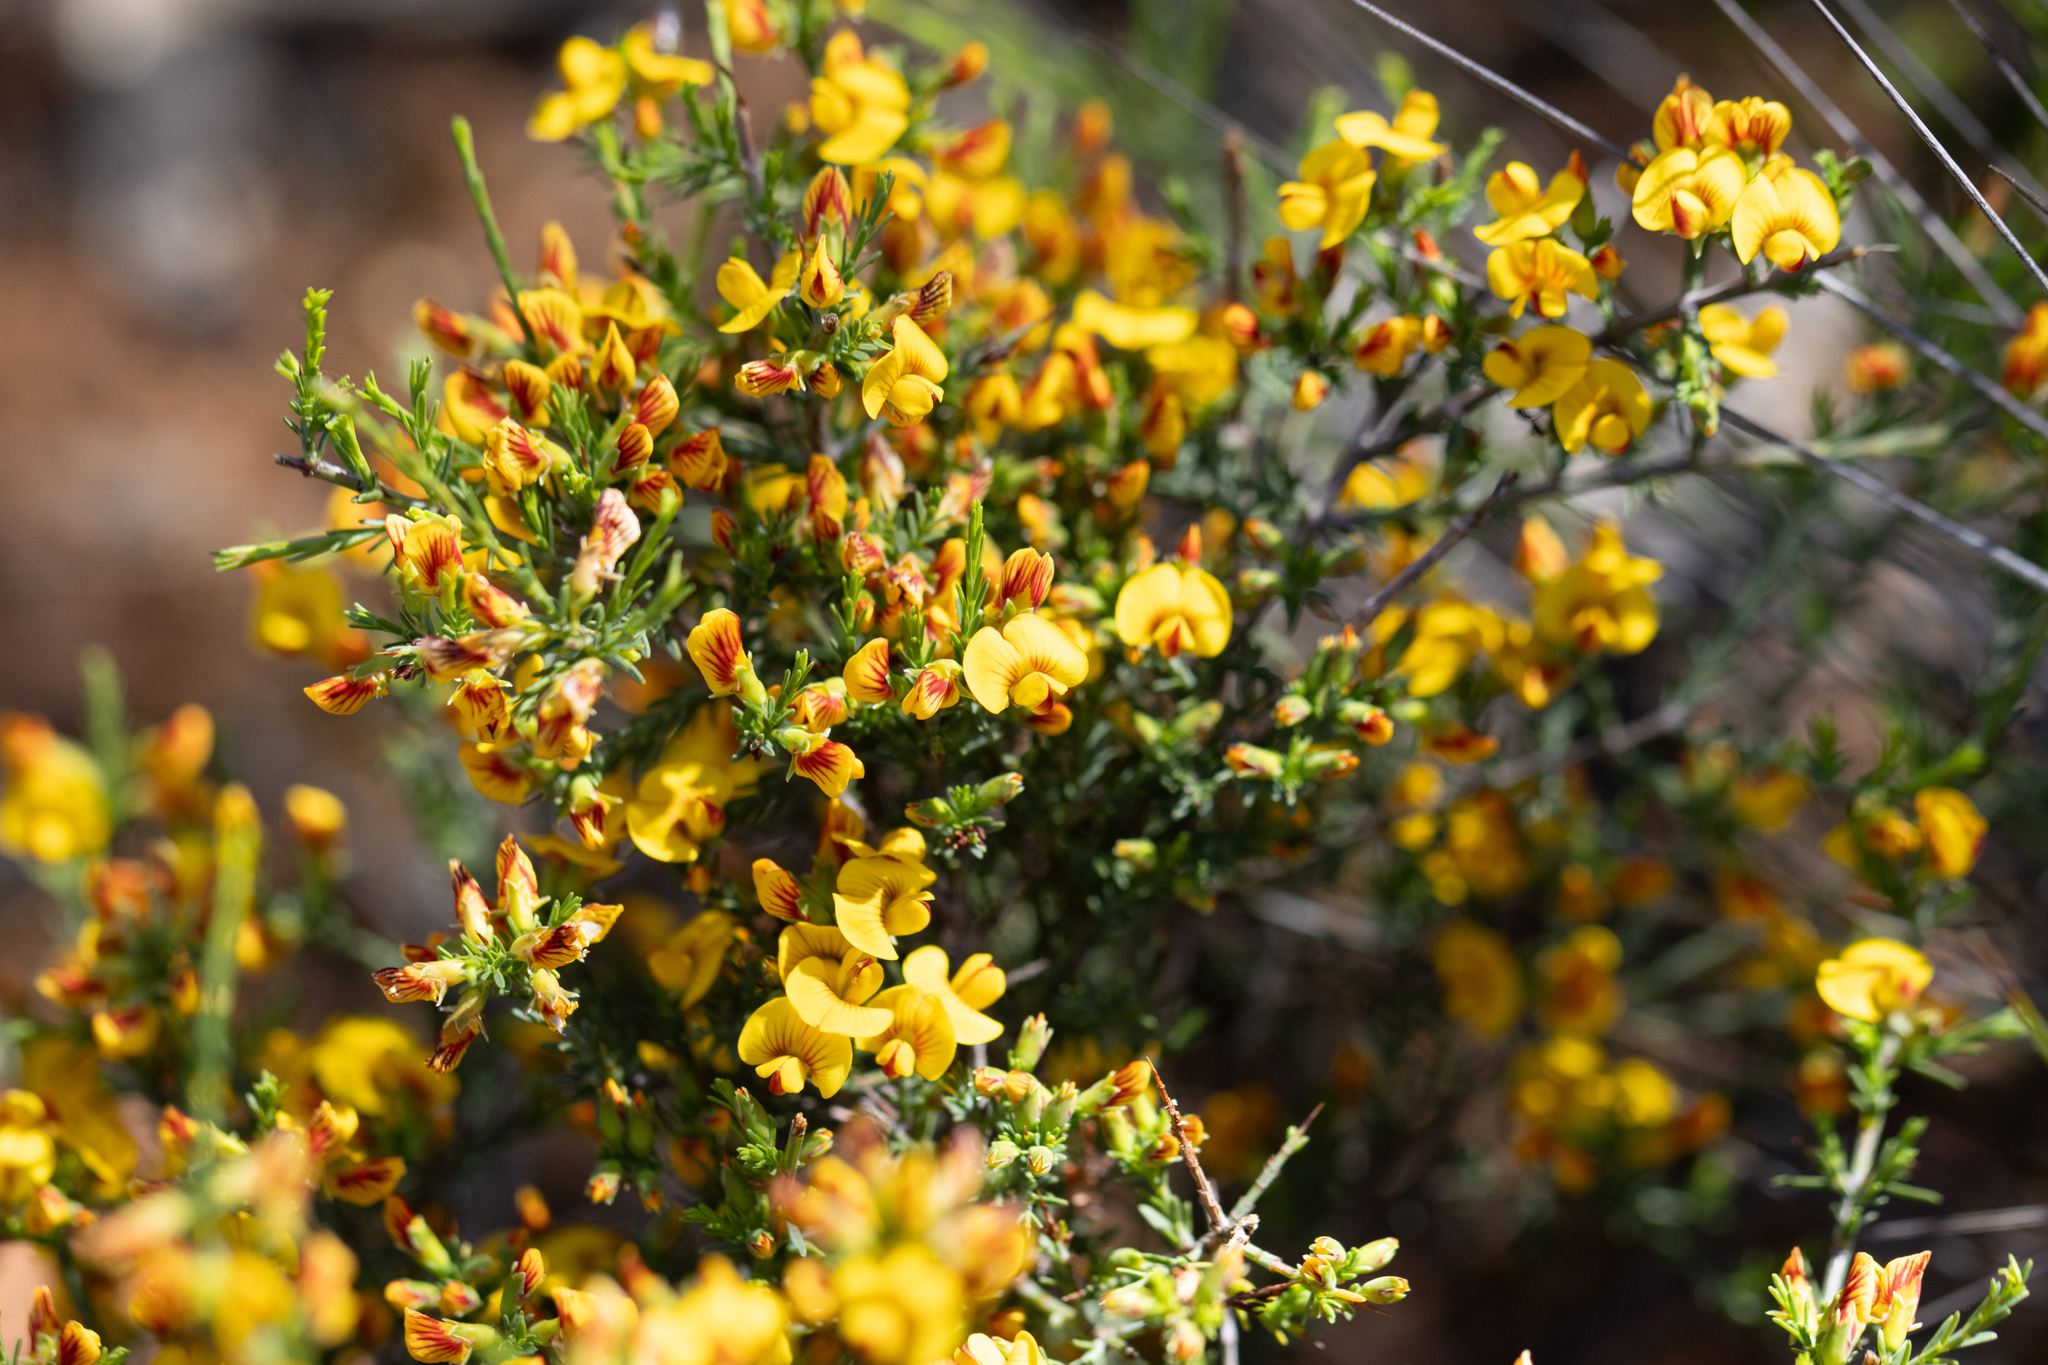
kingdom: Plantae
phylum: Tracheophyta
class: Magnoliopsida
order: Fabales
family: Fabaceae
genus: Eutaxia
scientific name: Eutaxia microphylla
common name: Mallee bush-pea
